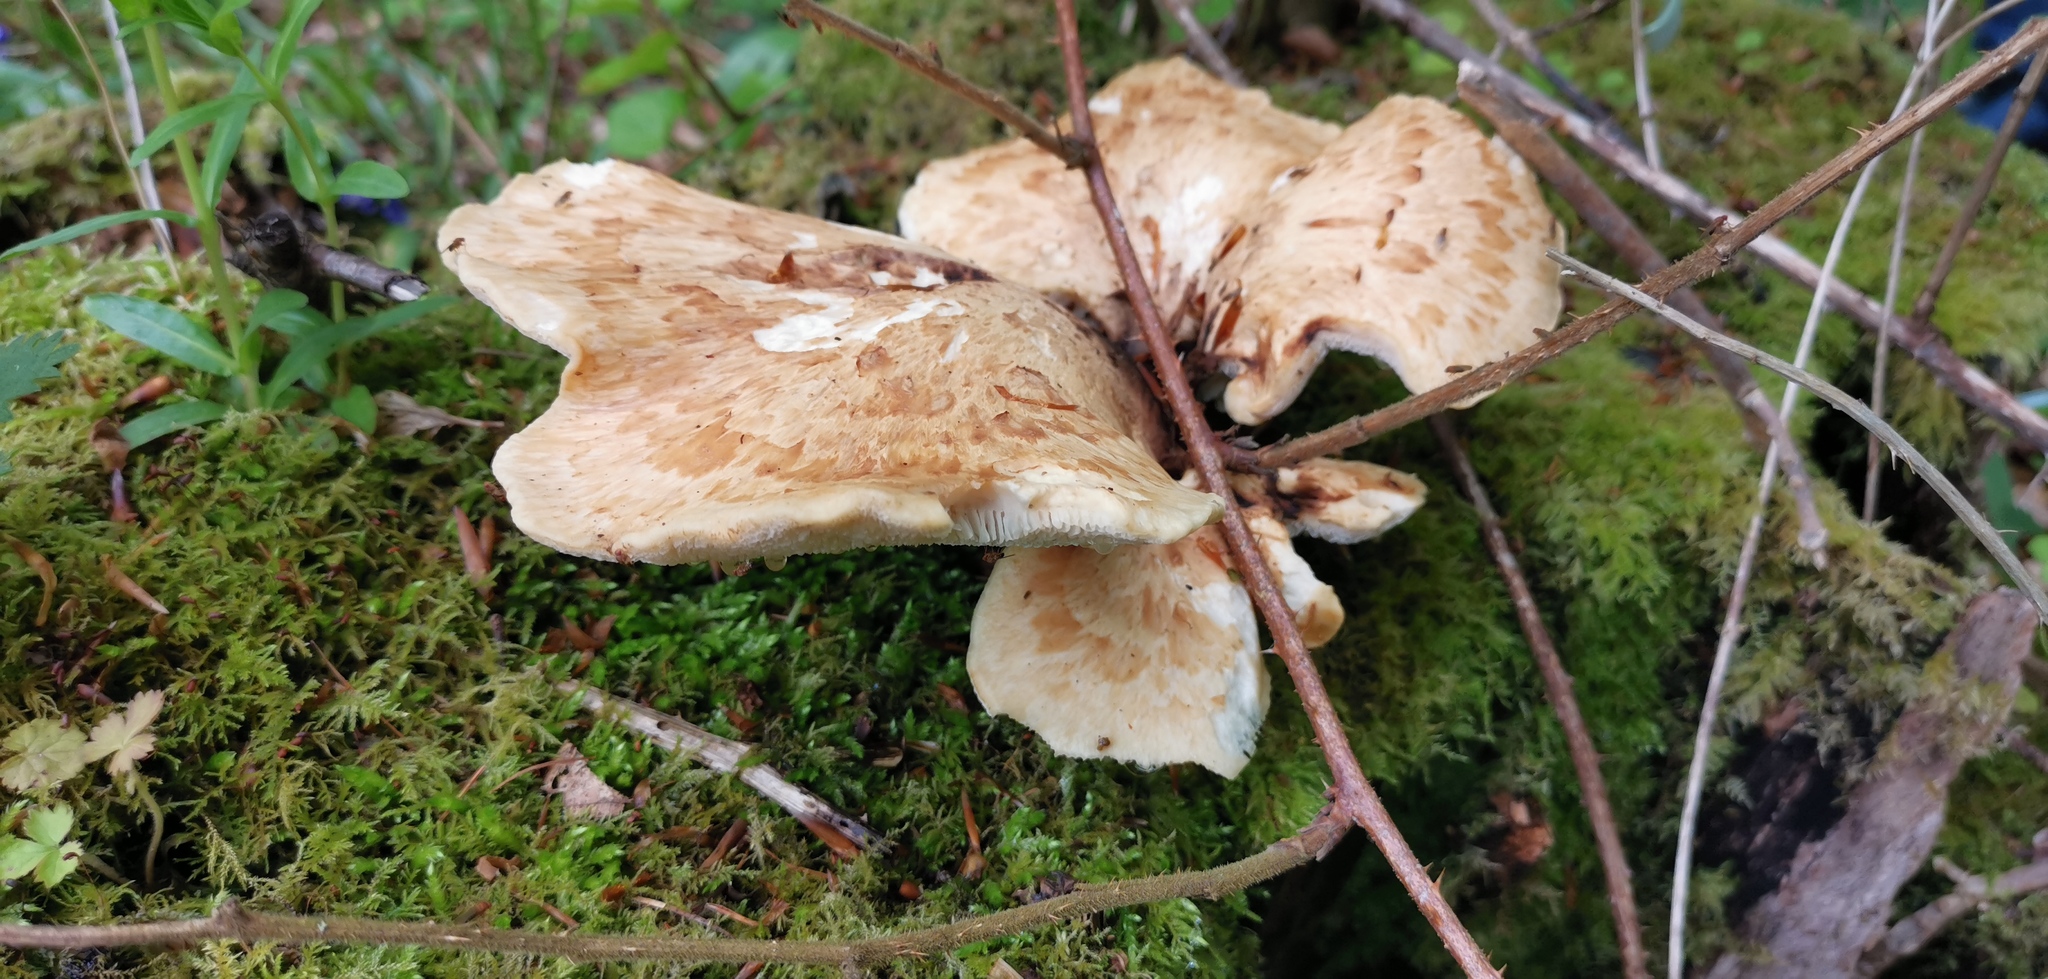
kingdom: Fungi
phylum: Basidiomycota
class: Agaricomycetes
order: Polyporales
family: Polyporaceae
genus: Cerioporus
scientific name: Cerioporus squamosus
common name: Dryad's saddle
